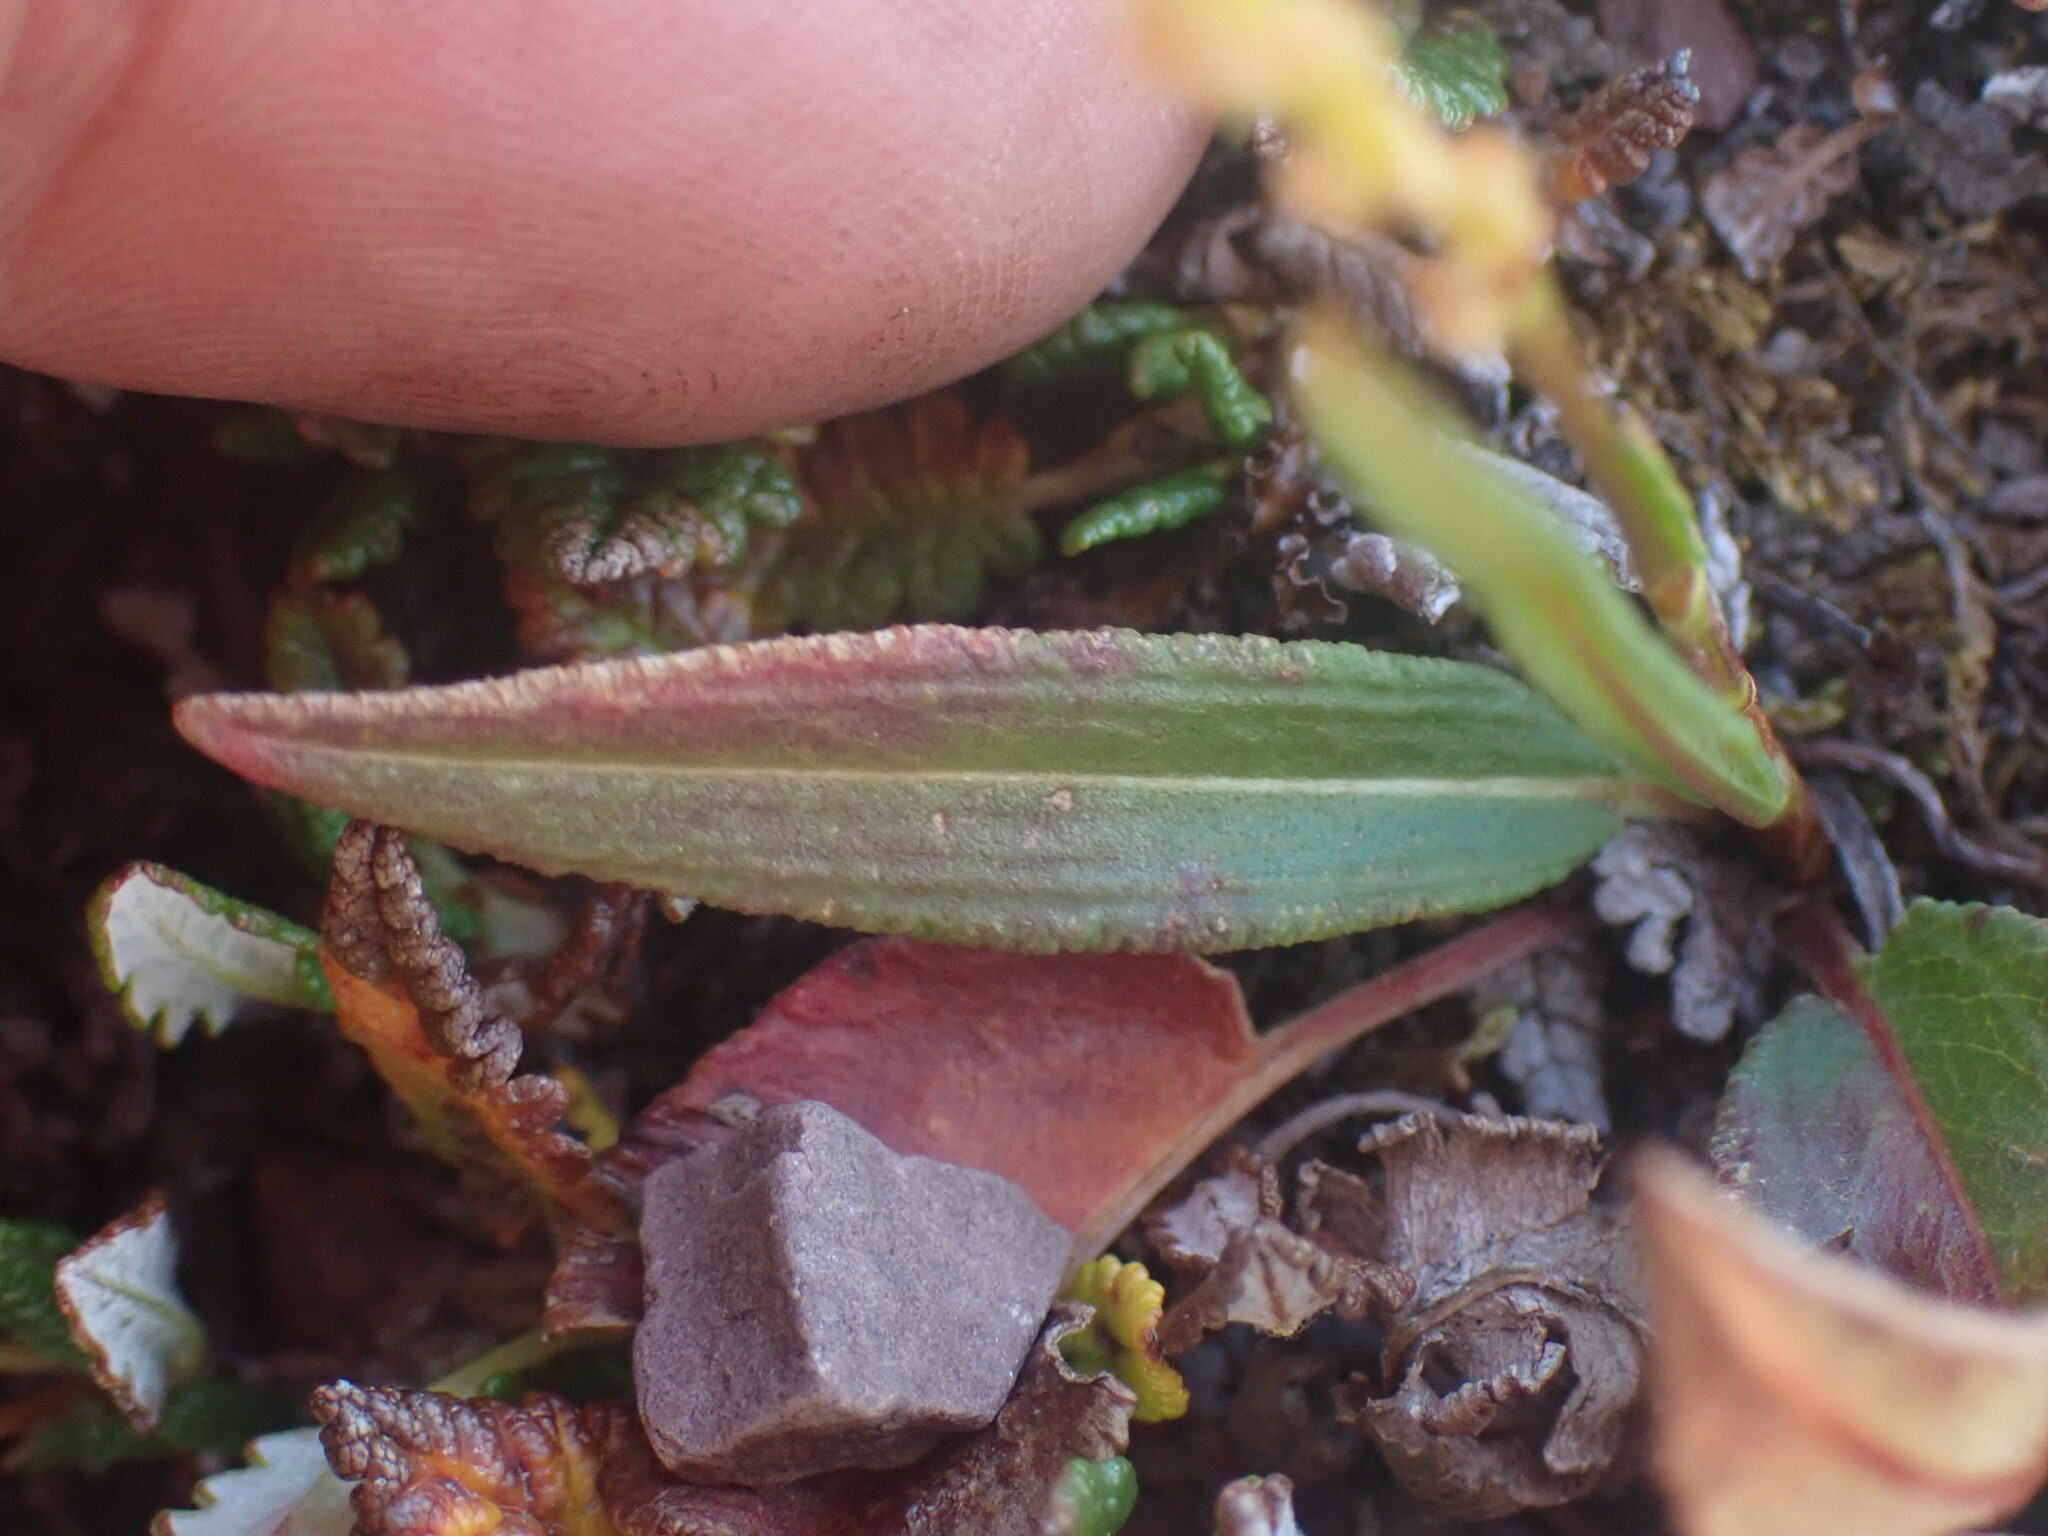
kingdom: Plantae
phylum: Tracheophyta
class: Magnoliopsida
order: Caryophyllales
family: Polygonaceae
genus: Bistorta
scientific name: Bistorta vivipara
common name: Alpine bistort
